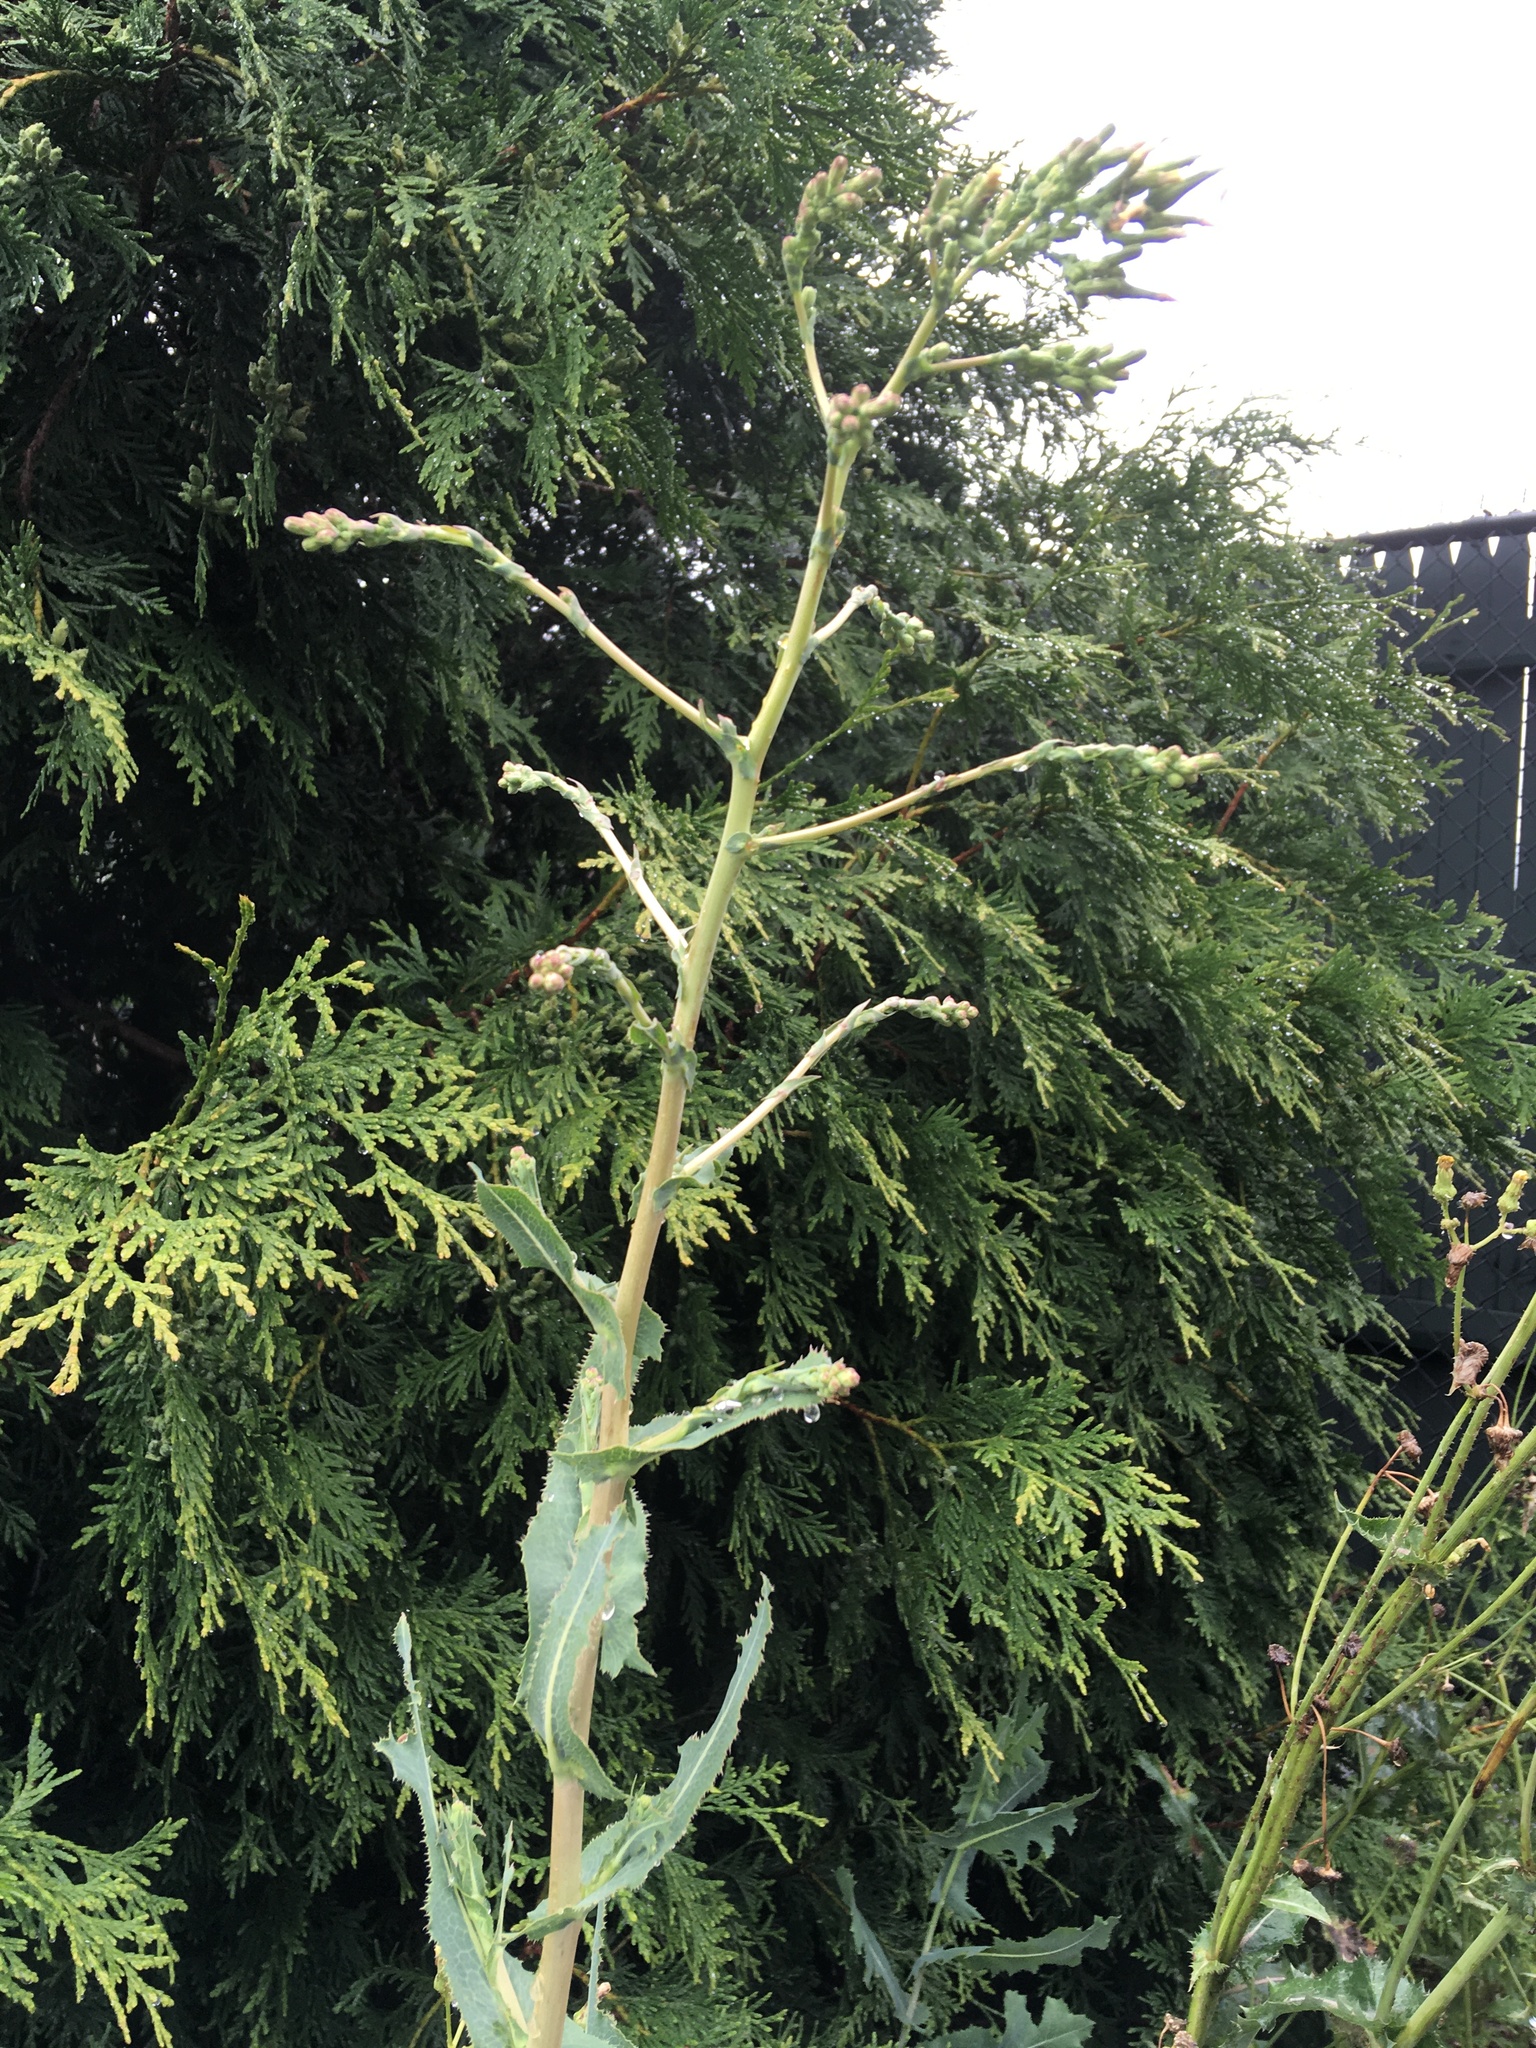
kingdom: Plantae
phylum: Tracheophyta
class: Magnoliopsida
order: Asterales
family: Asteraceae
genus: Lactuca
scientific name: Lactuca serriola
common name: Prickly lettuce
